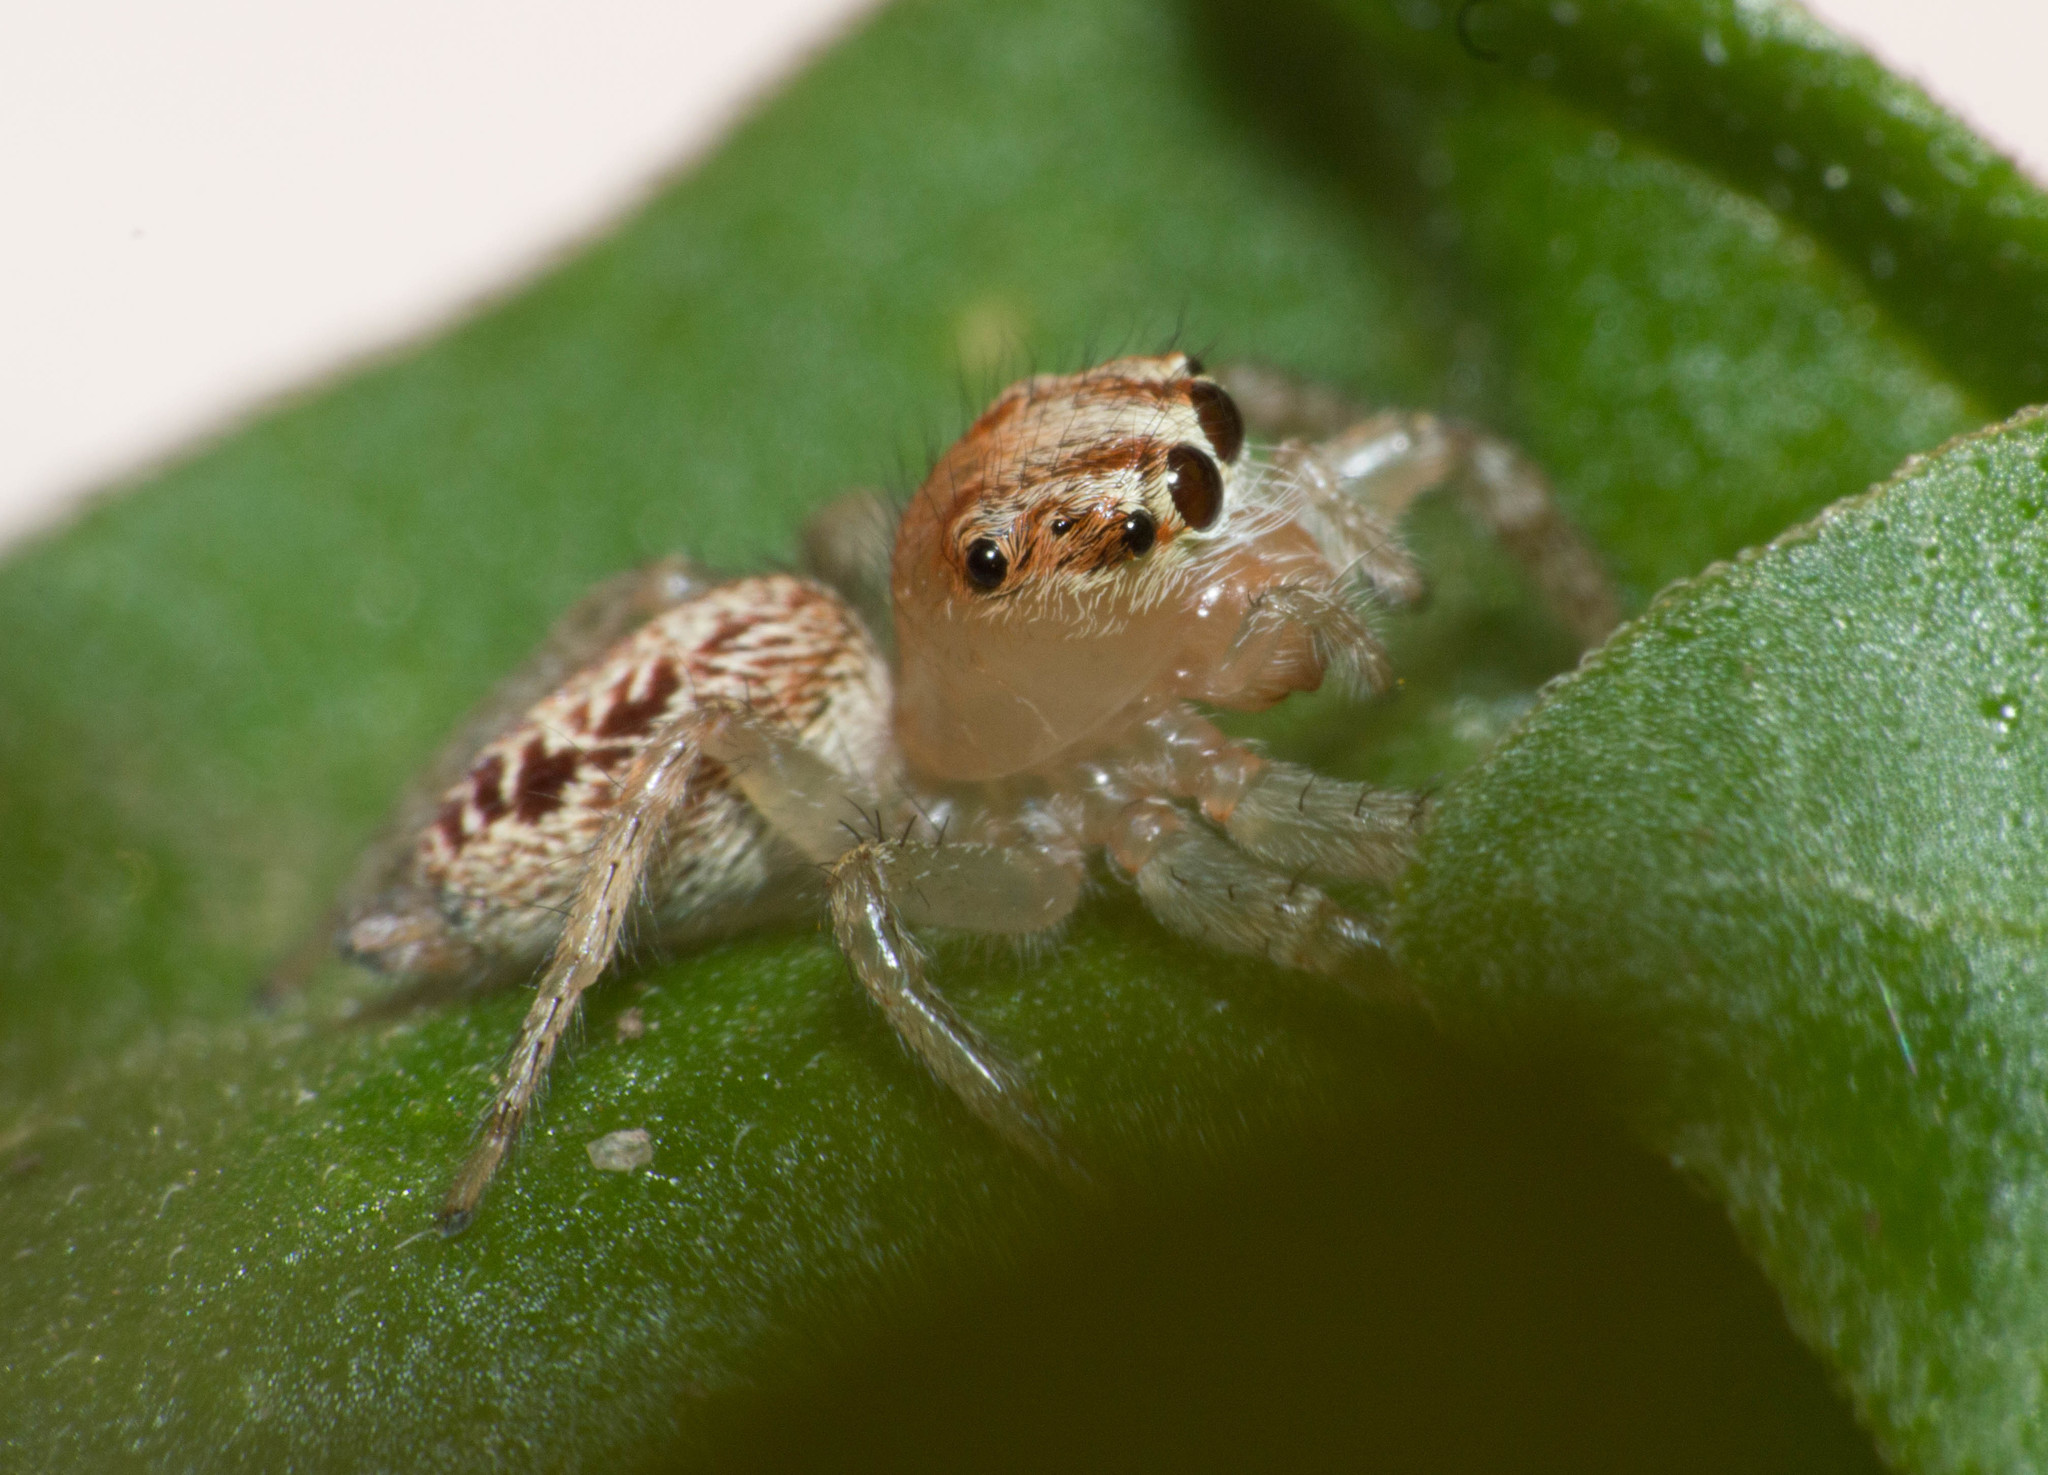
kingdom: Animalia
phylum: Arthropoda
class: Arachnida
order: Araneae
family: Salticidae
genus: Chira
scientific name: Chira gounellei
